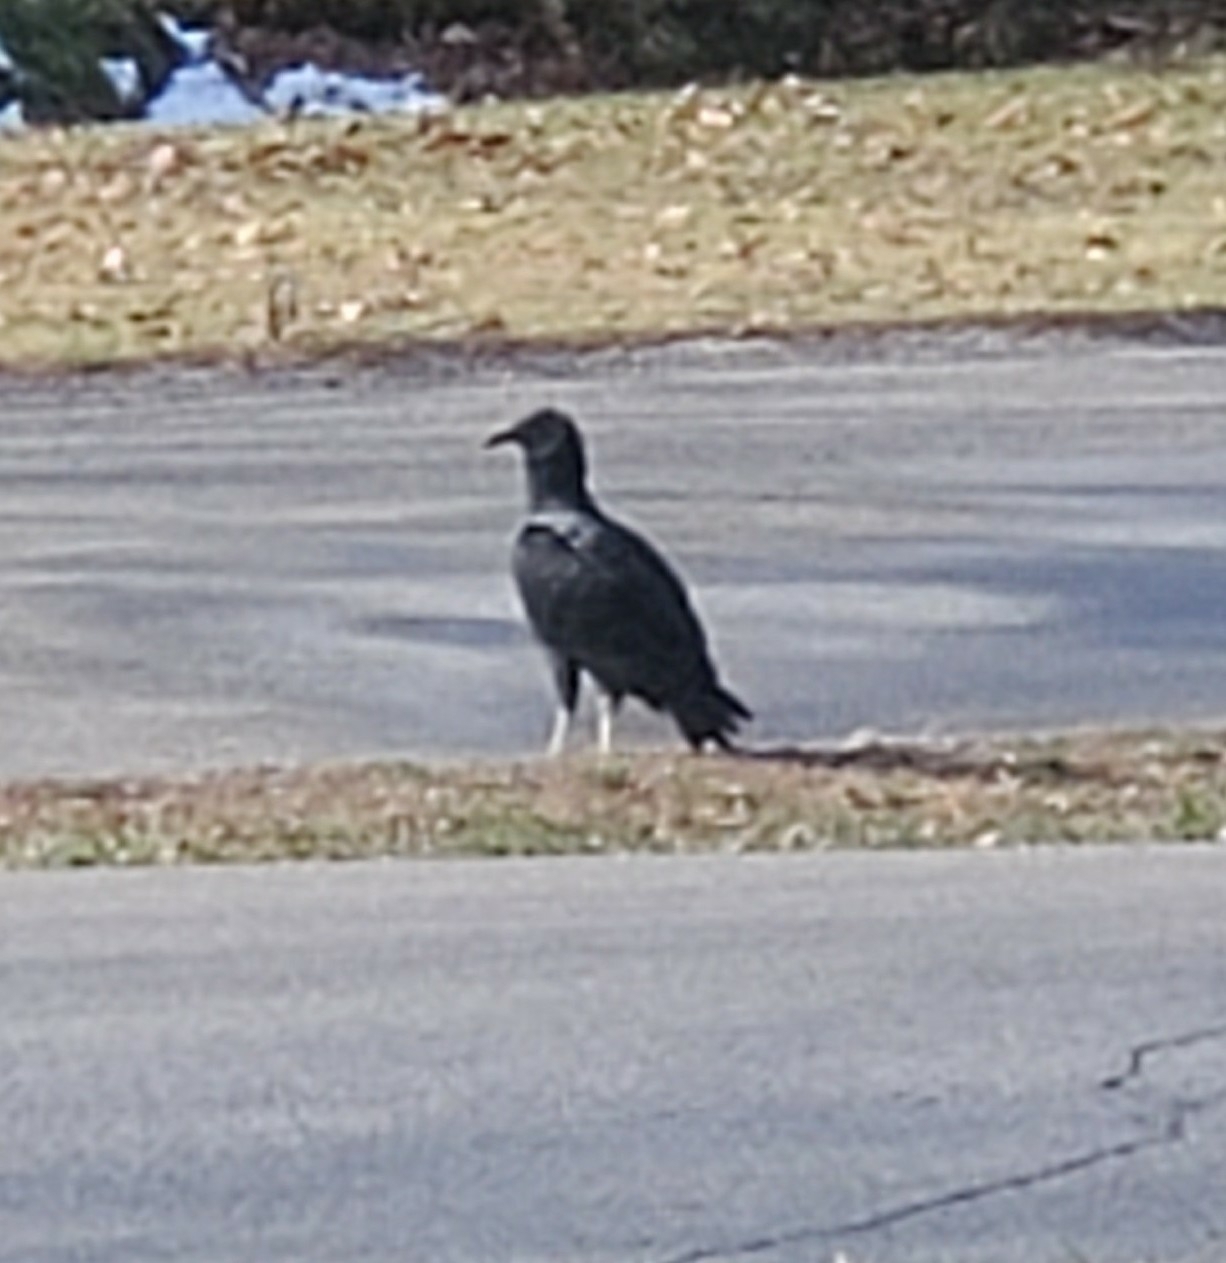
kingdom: Animalia
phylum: Chordata
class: Aves
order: Accipitriformes
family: Cathartidae
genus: Coragyps
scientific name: Coragyps atratus
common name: Black vulture
